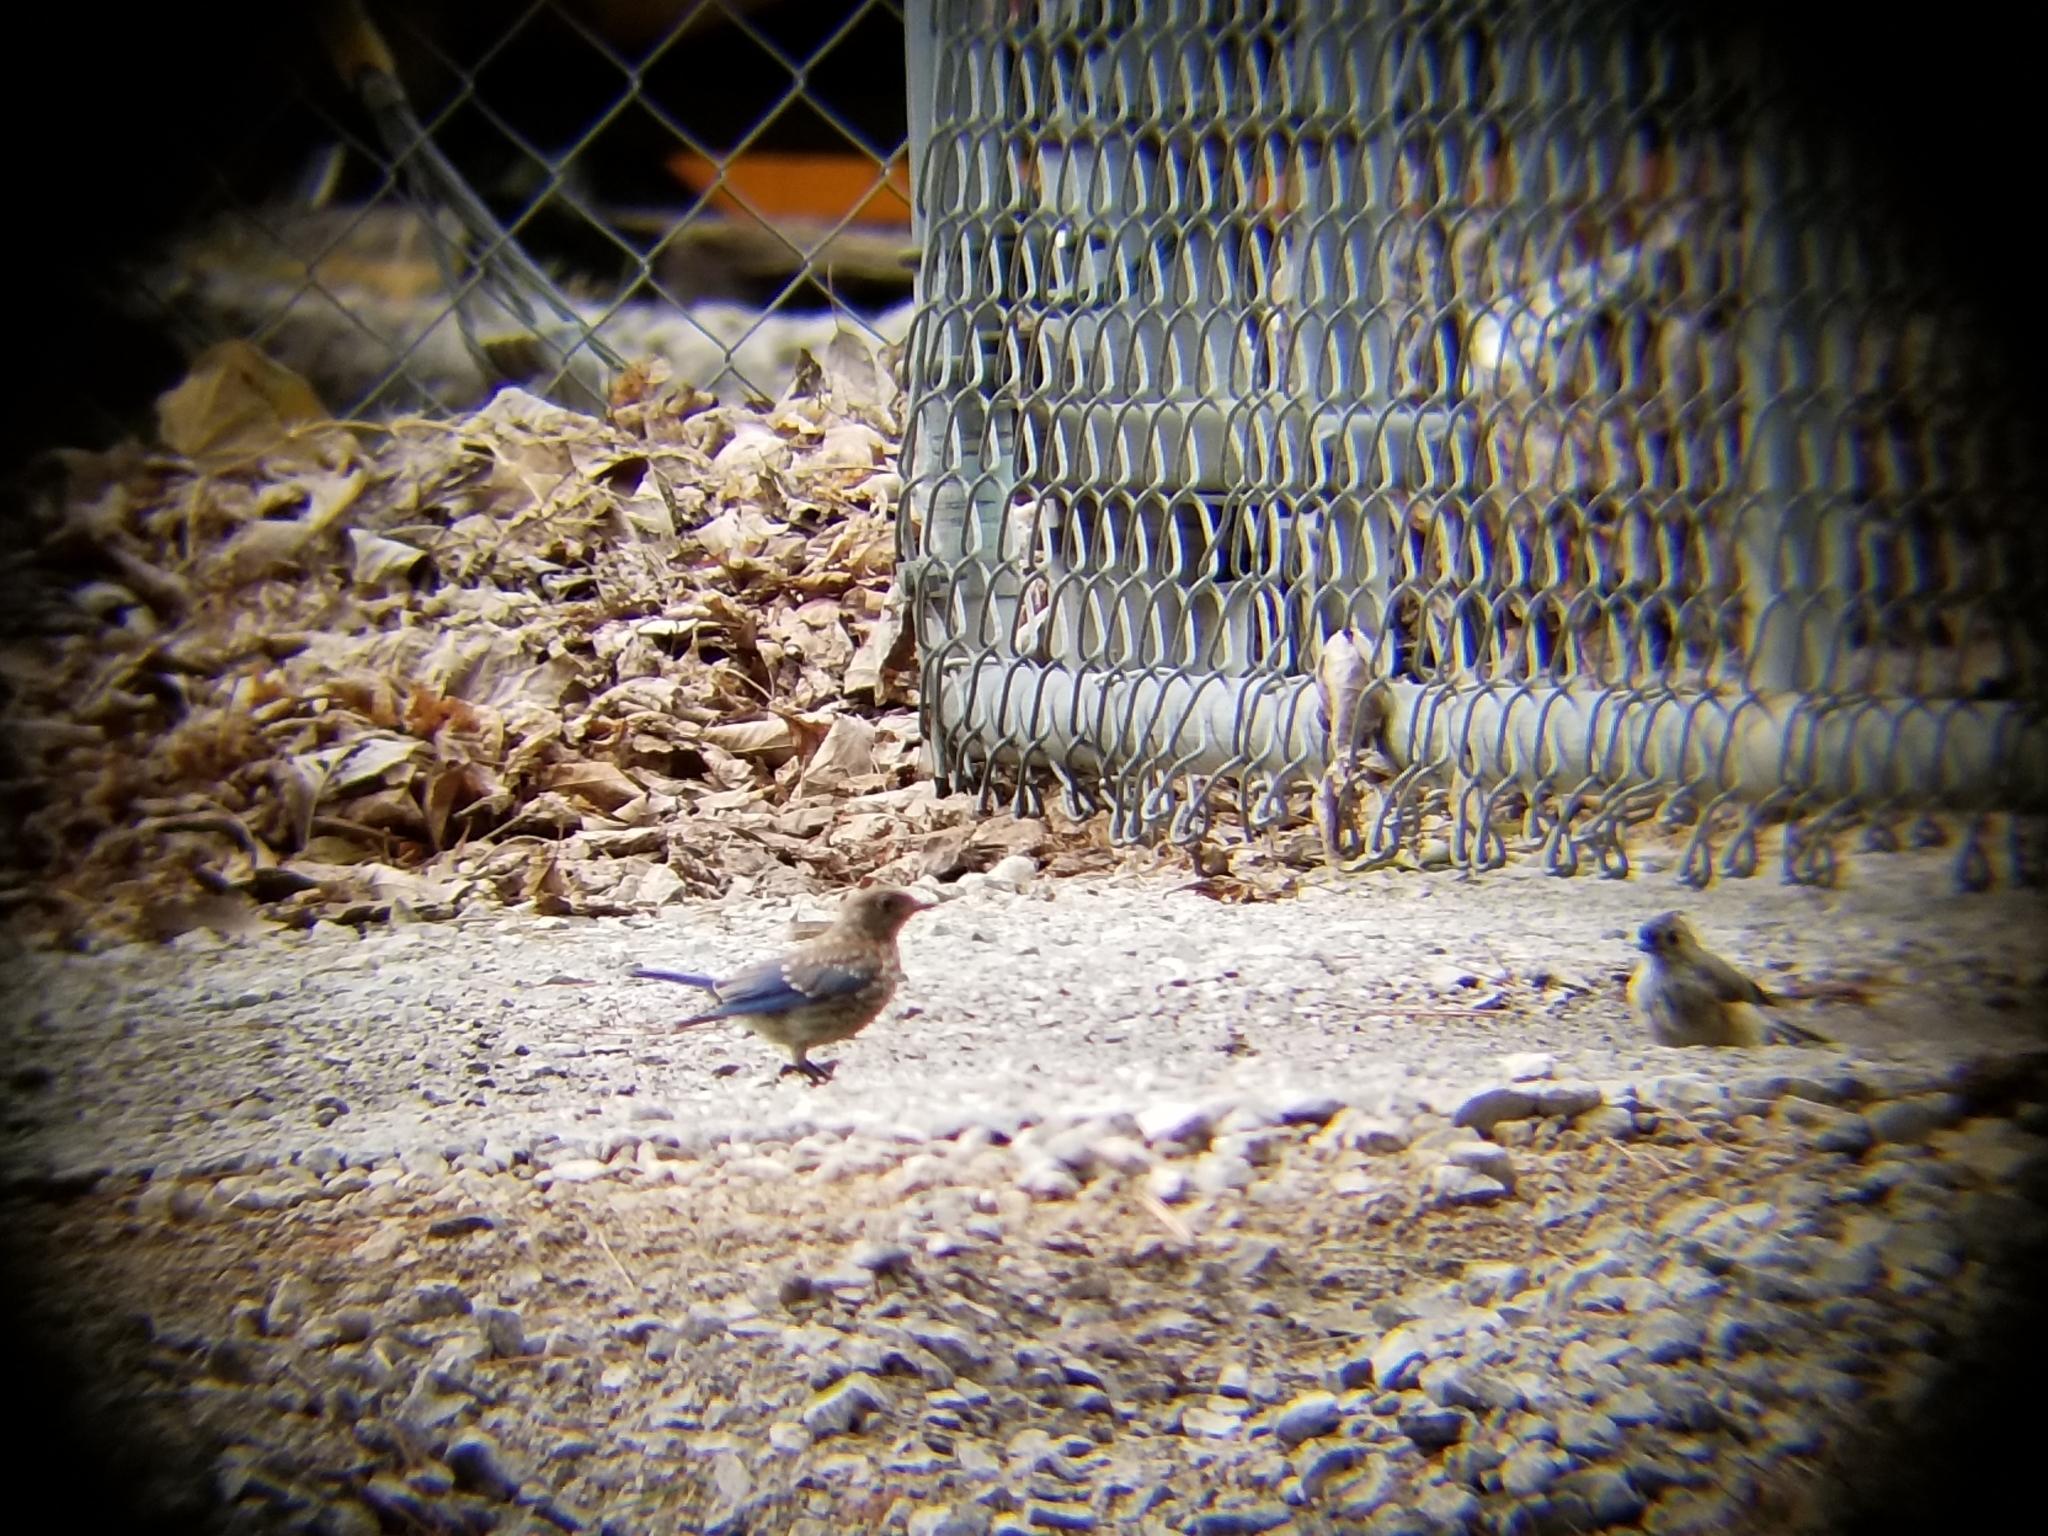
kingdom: Animalia
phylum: Chordata
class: Aves
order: Passeriformes
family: Turdidae
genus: Sialia
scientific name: Sialia sialis
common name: Eastern bluebird
